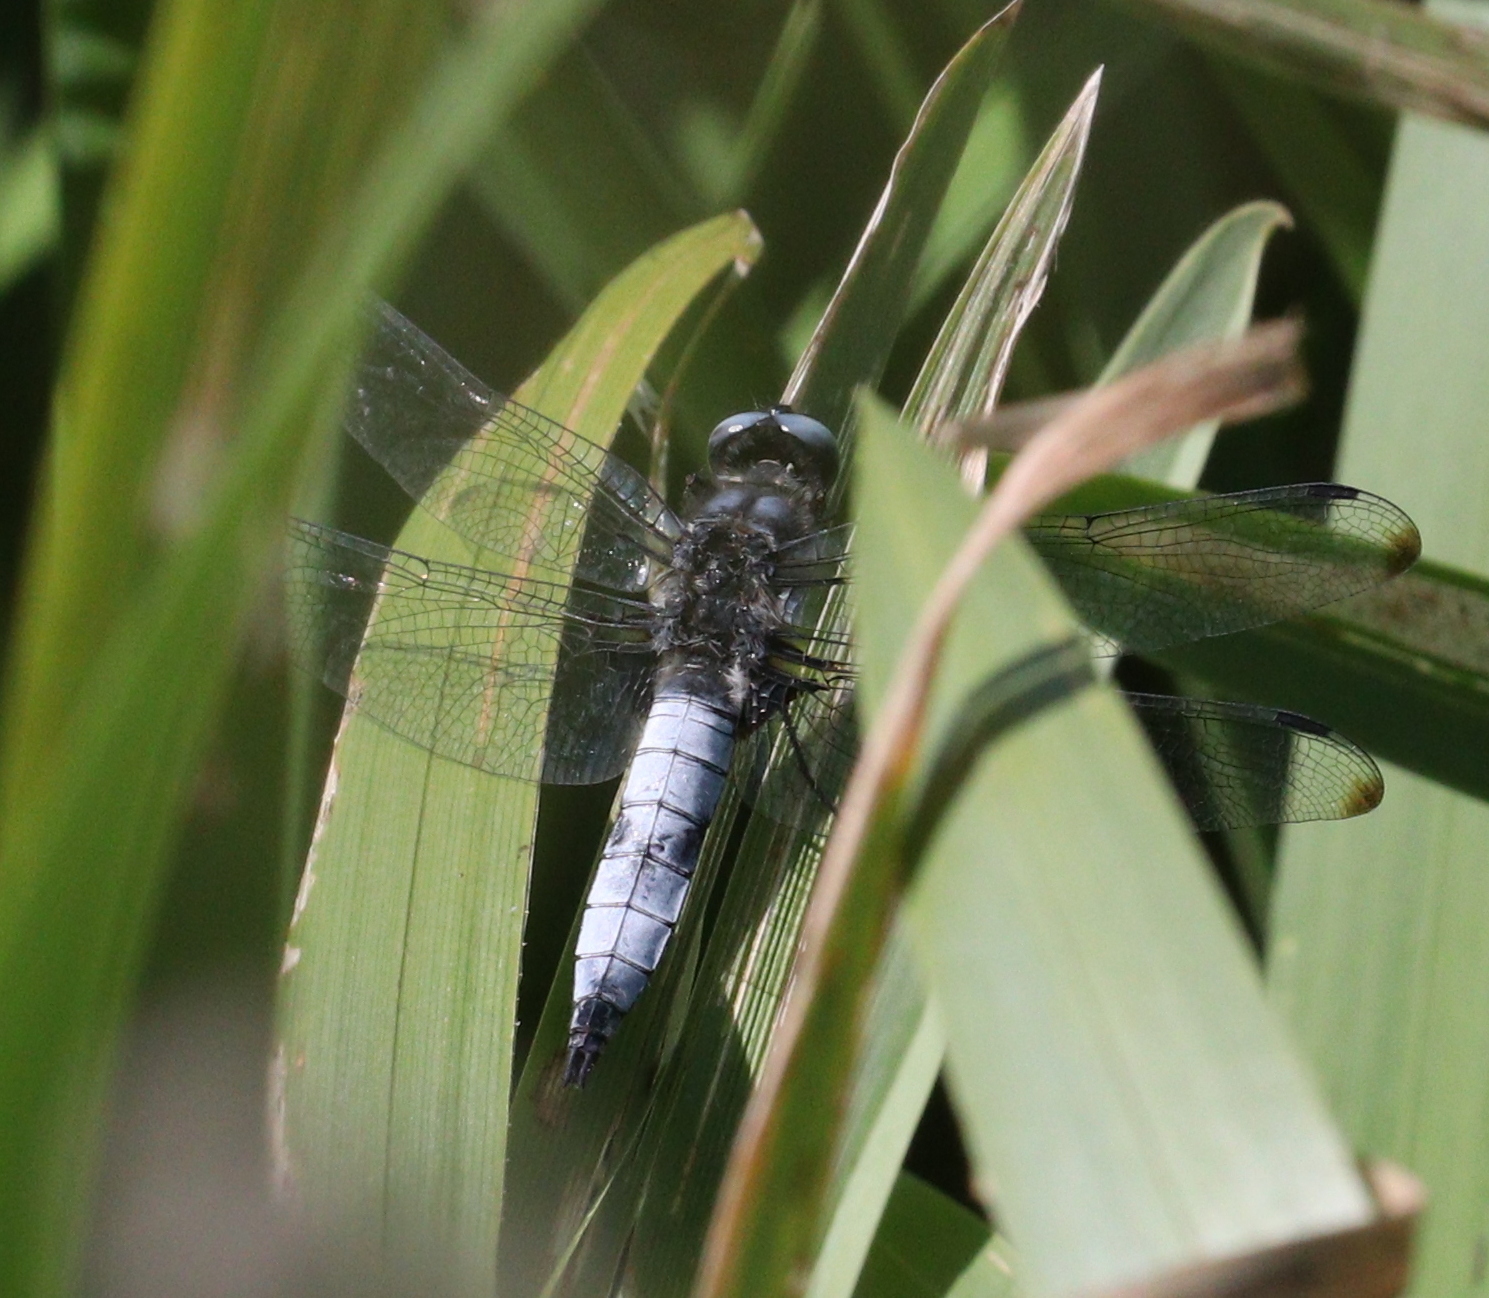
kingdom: Animalia
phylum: Arthropoda
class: Insecta
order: Odonata
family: Libellulidae
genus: Libellula
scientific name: Libellula fulva
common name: Blue chaser
